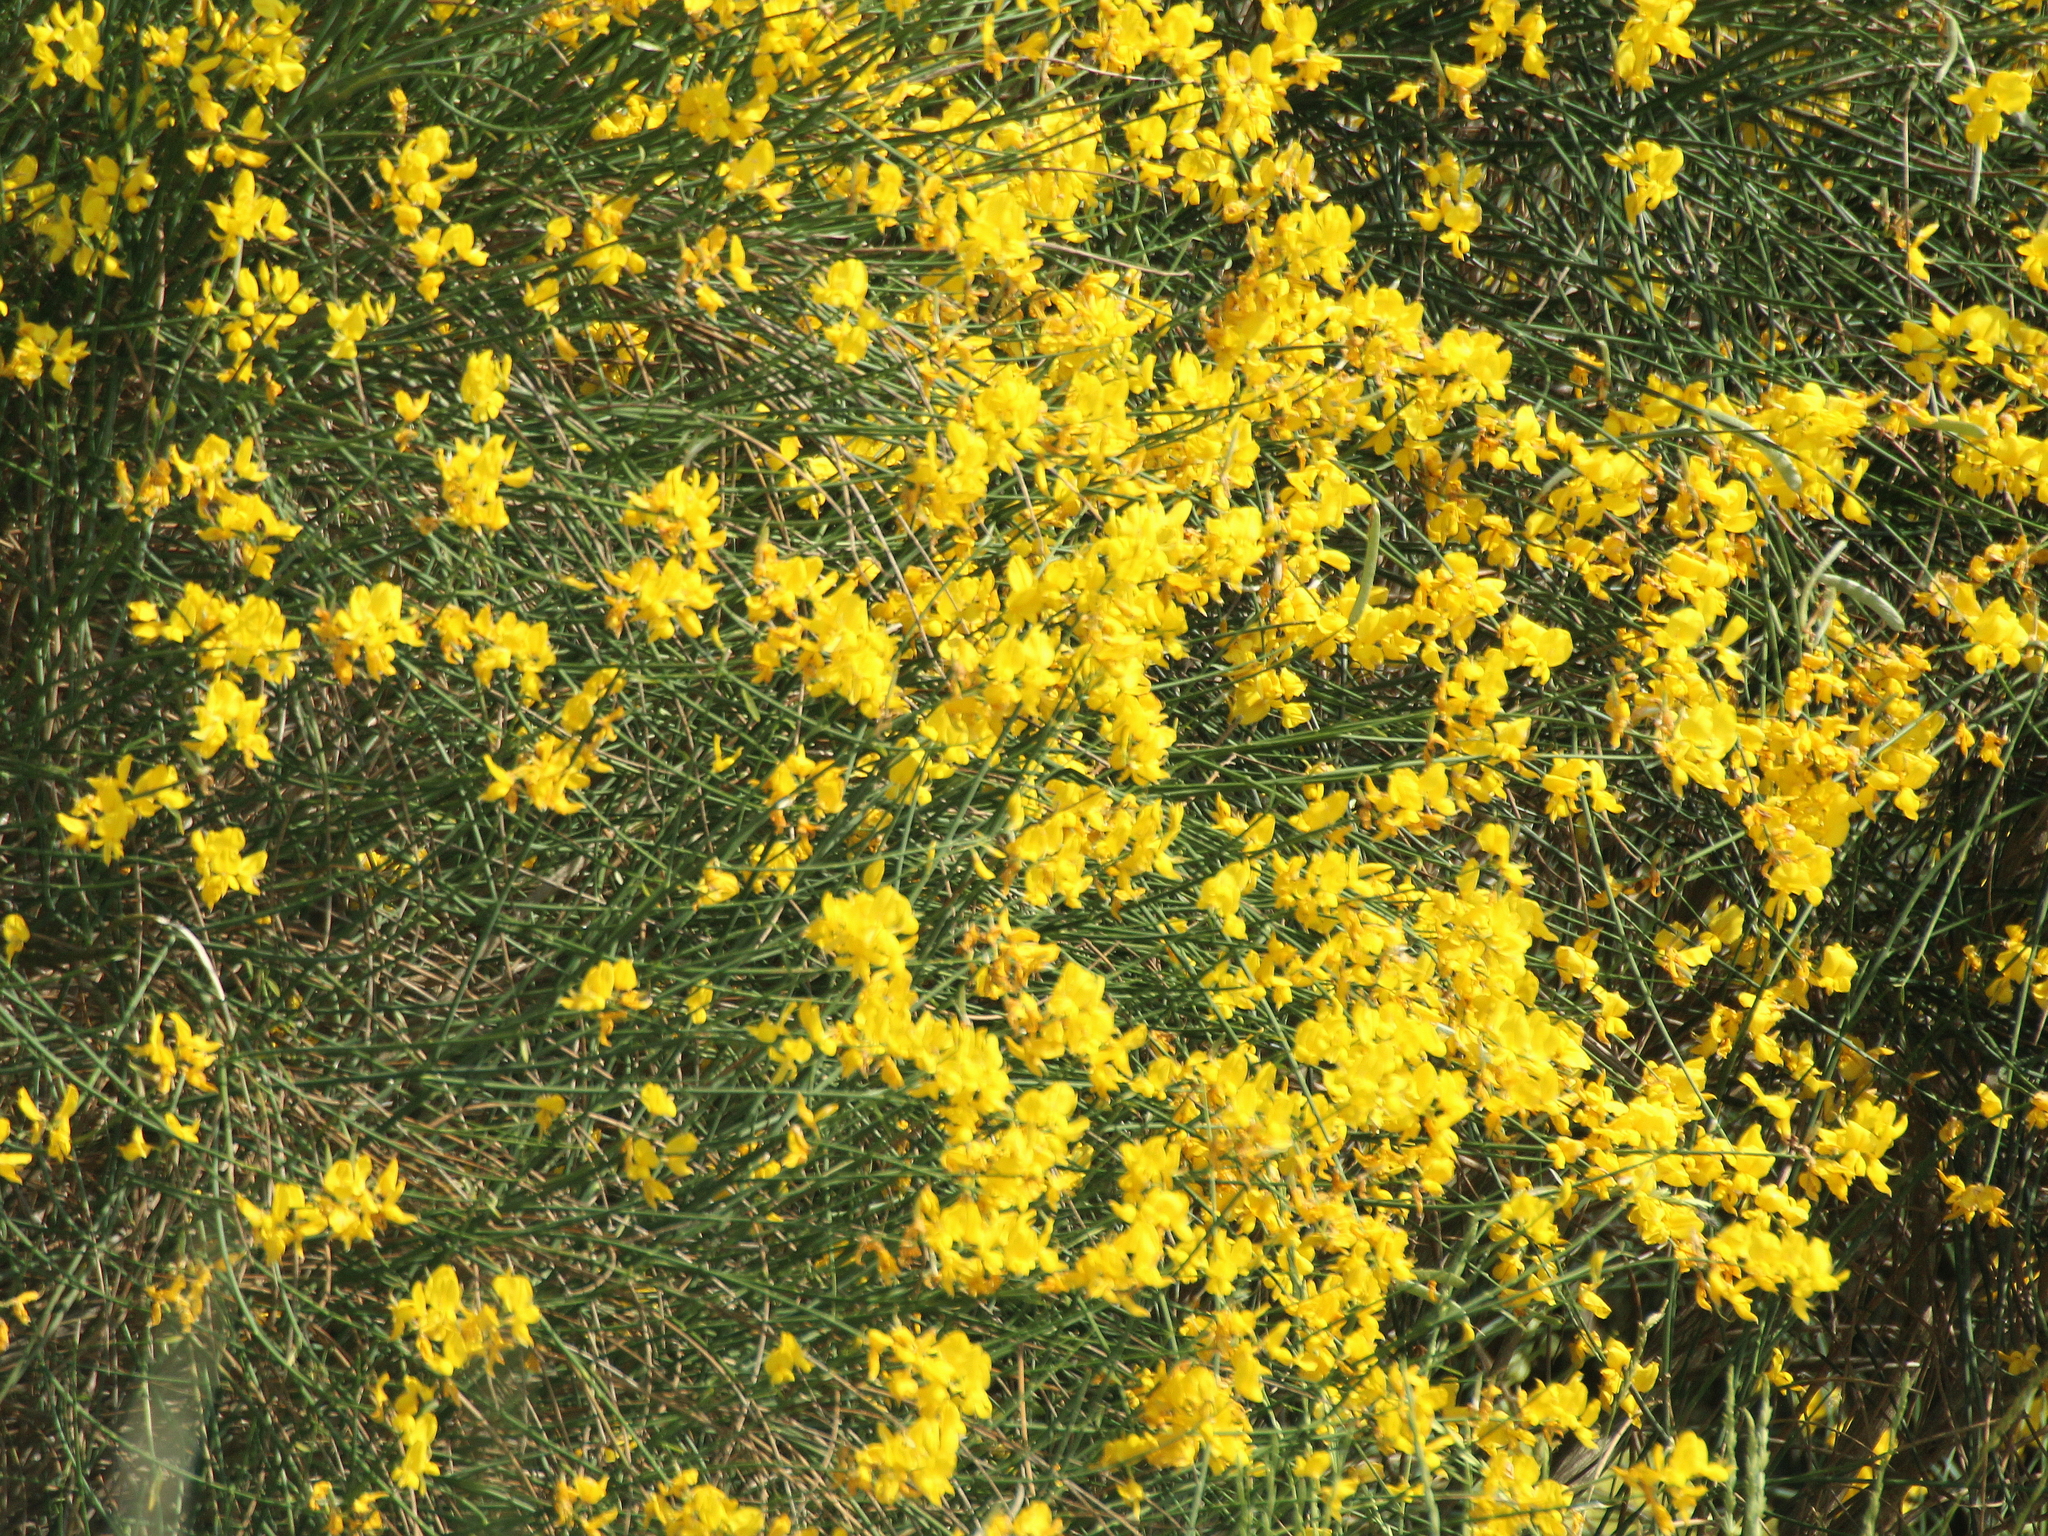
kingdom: Plantae
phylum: Tracheophyta
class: Magnoliopsida
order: Fabales
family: Fabaceae
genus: Spartium
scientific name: Spartium junceum
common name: Spanish broom
